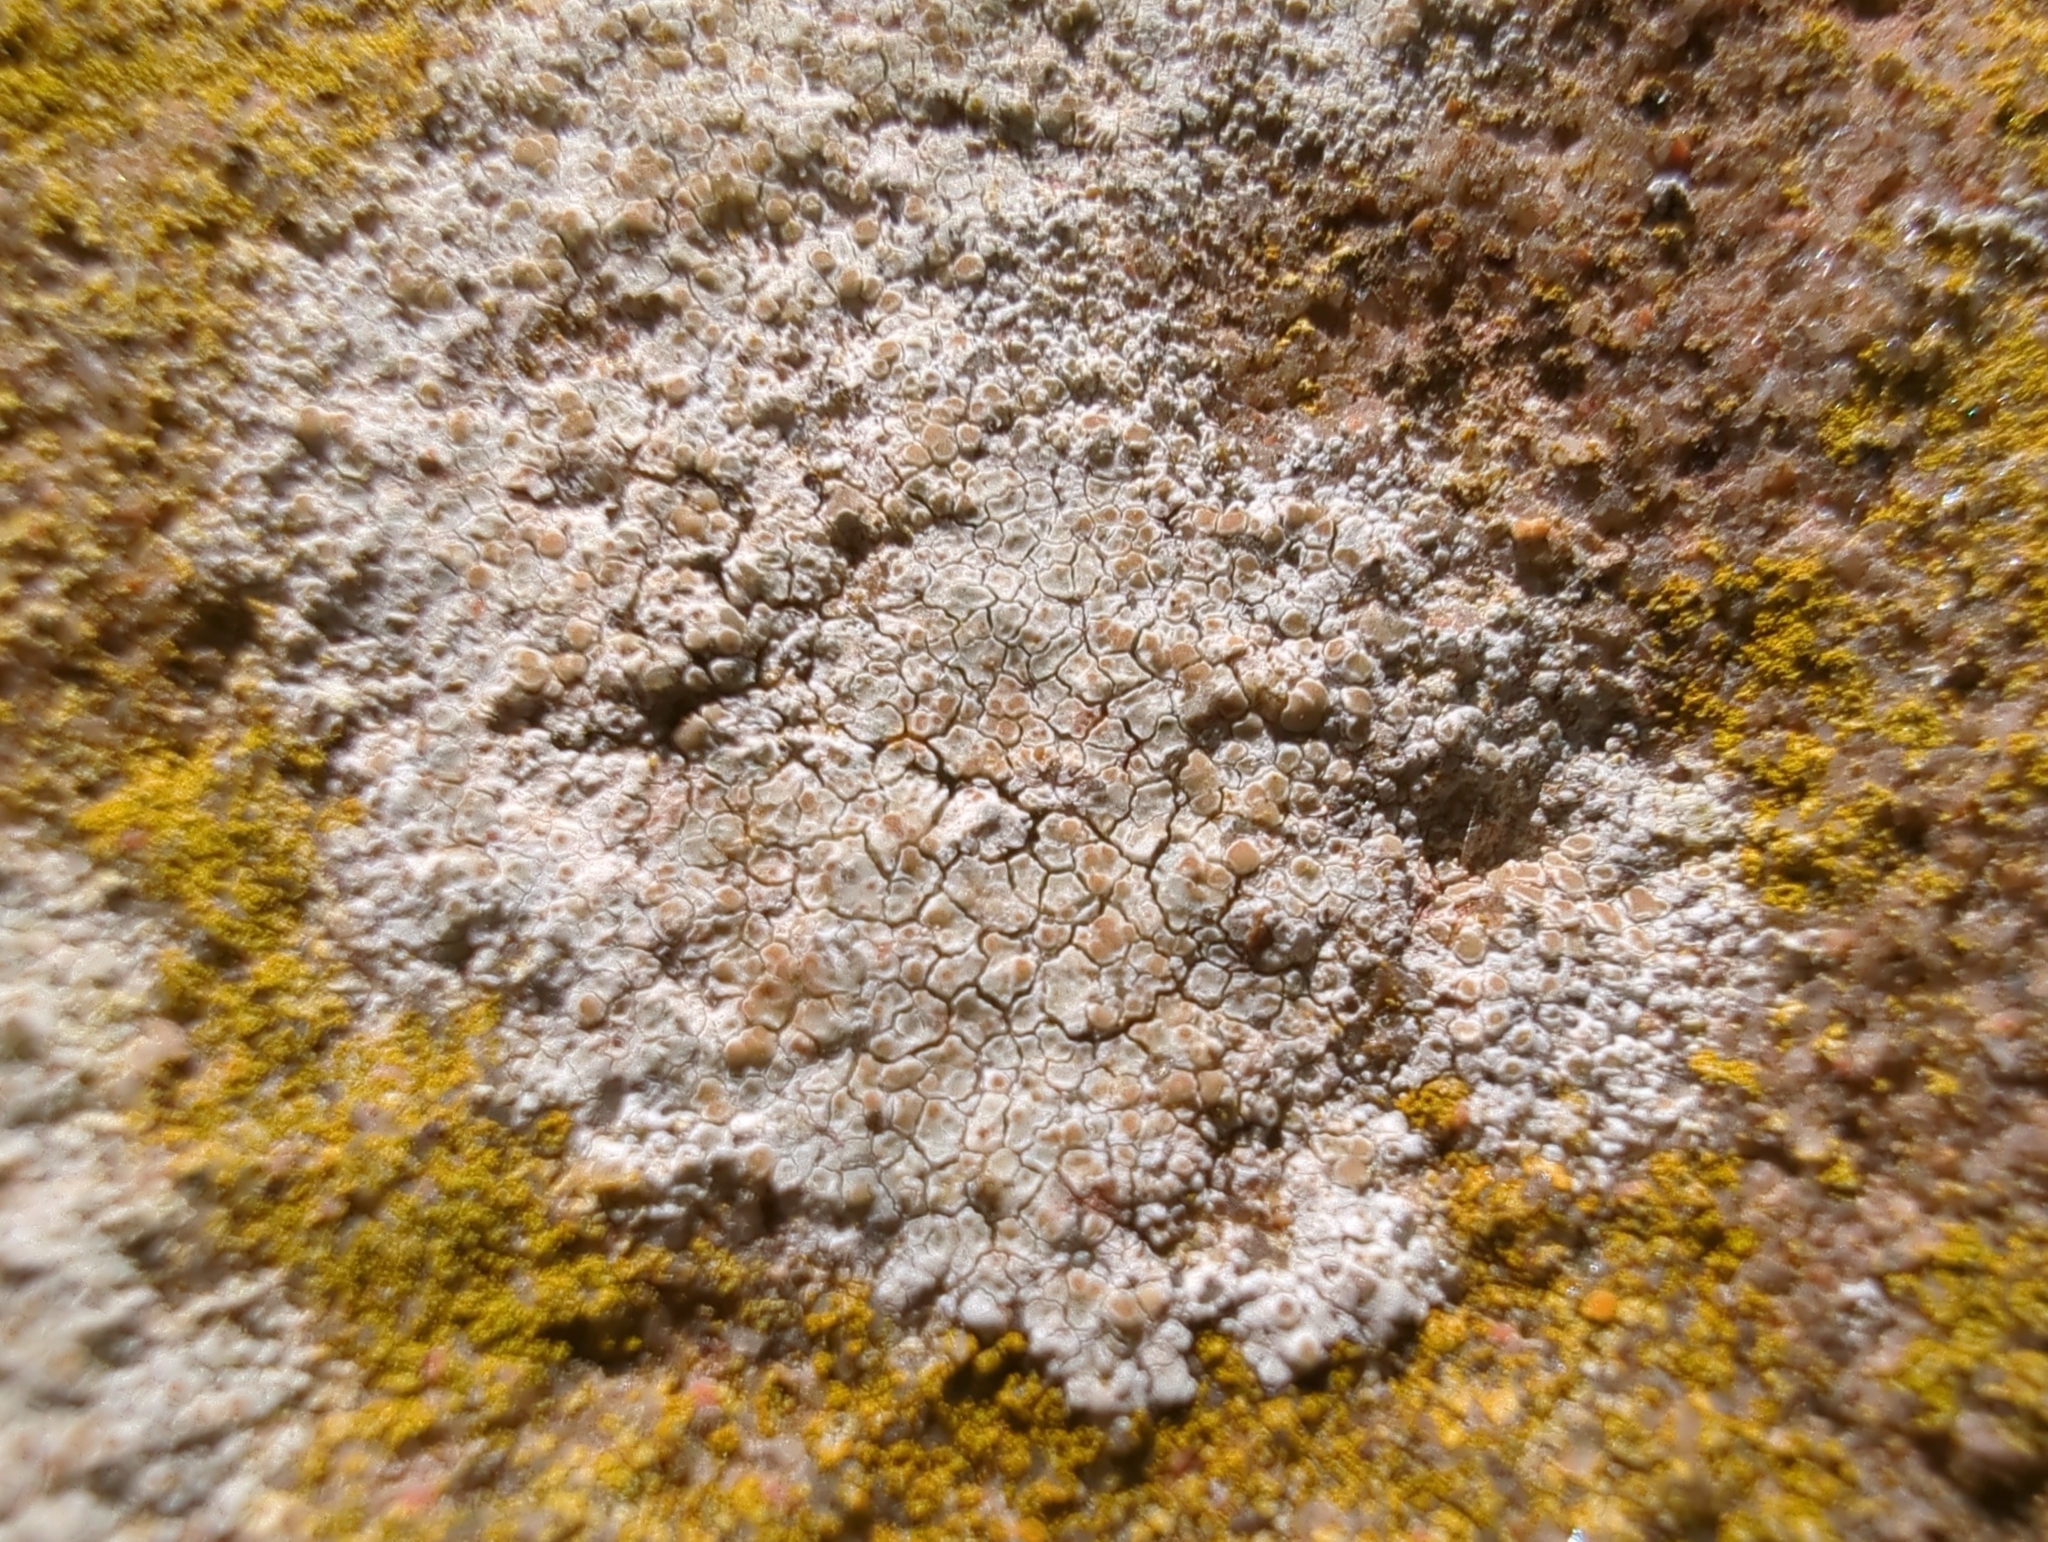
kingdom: Fungi
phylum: Ascomycota
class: Lecanoromycetes
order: Lecanorales
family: Lecanoraceae
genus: Polyozosia
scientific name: Polyozosia albescens
